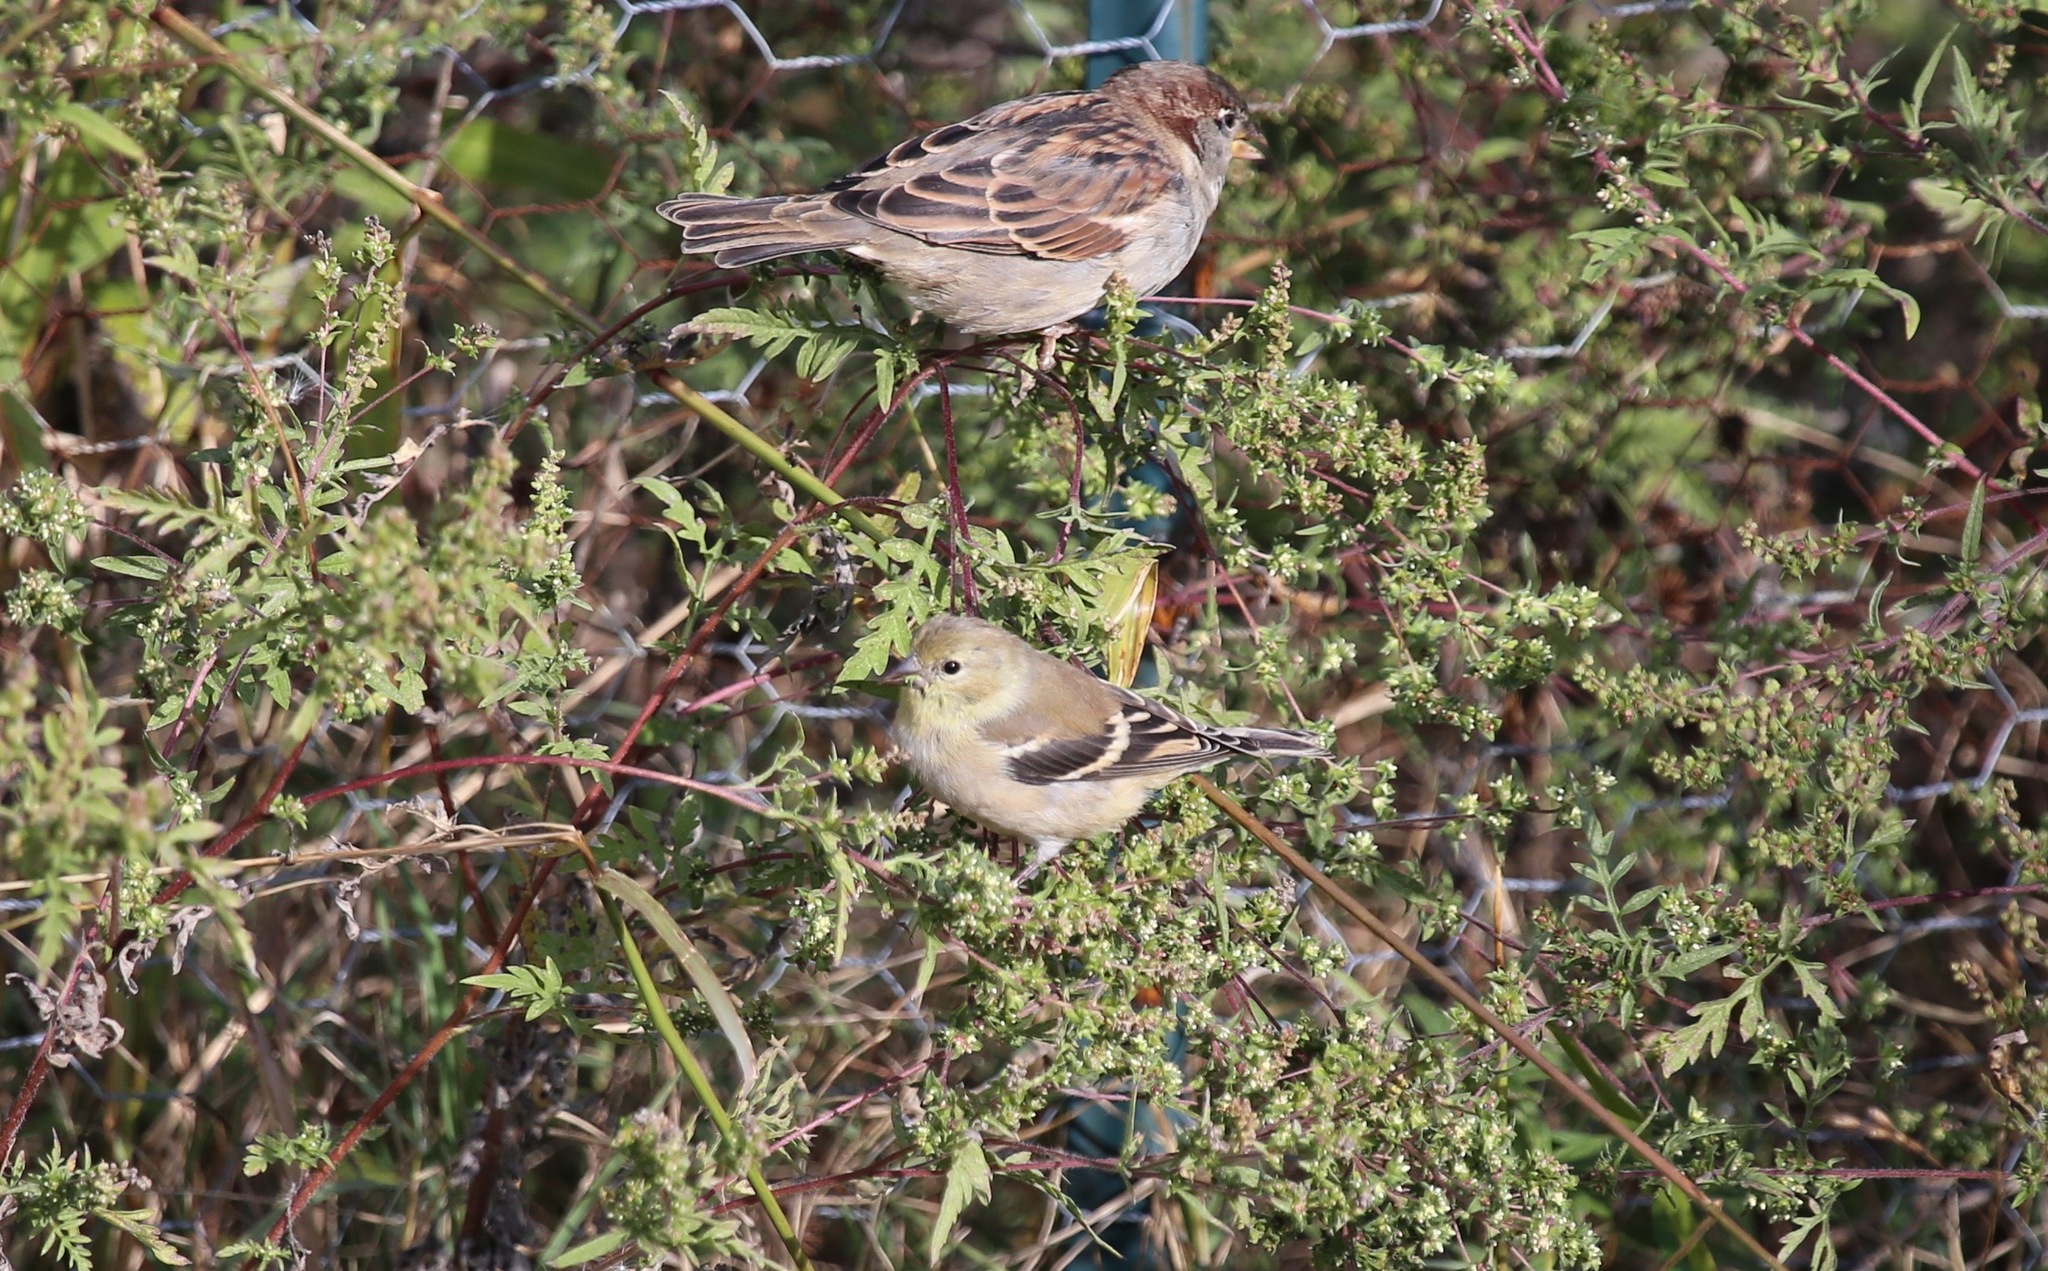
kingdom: Animalia
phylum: Chordata
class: Aves
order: Passeriformes
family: Fringillidae
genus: Spinus
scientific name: Spinus tristis
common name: American goldfinch
